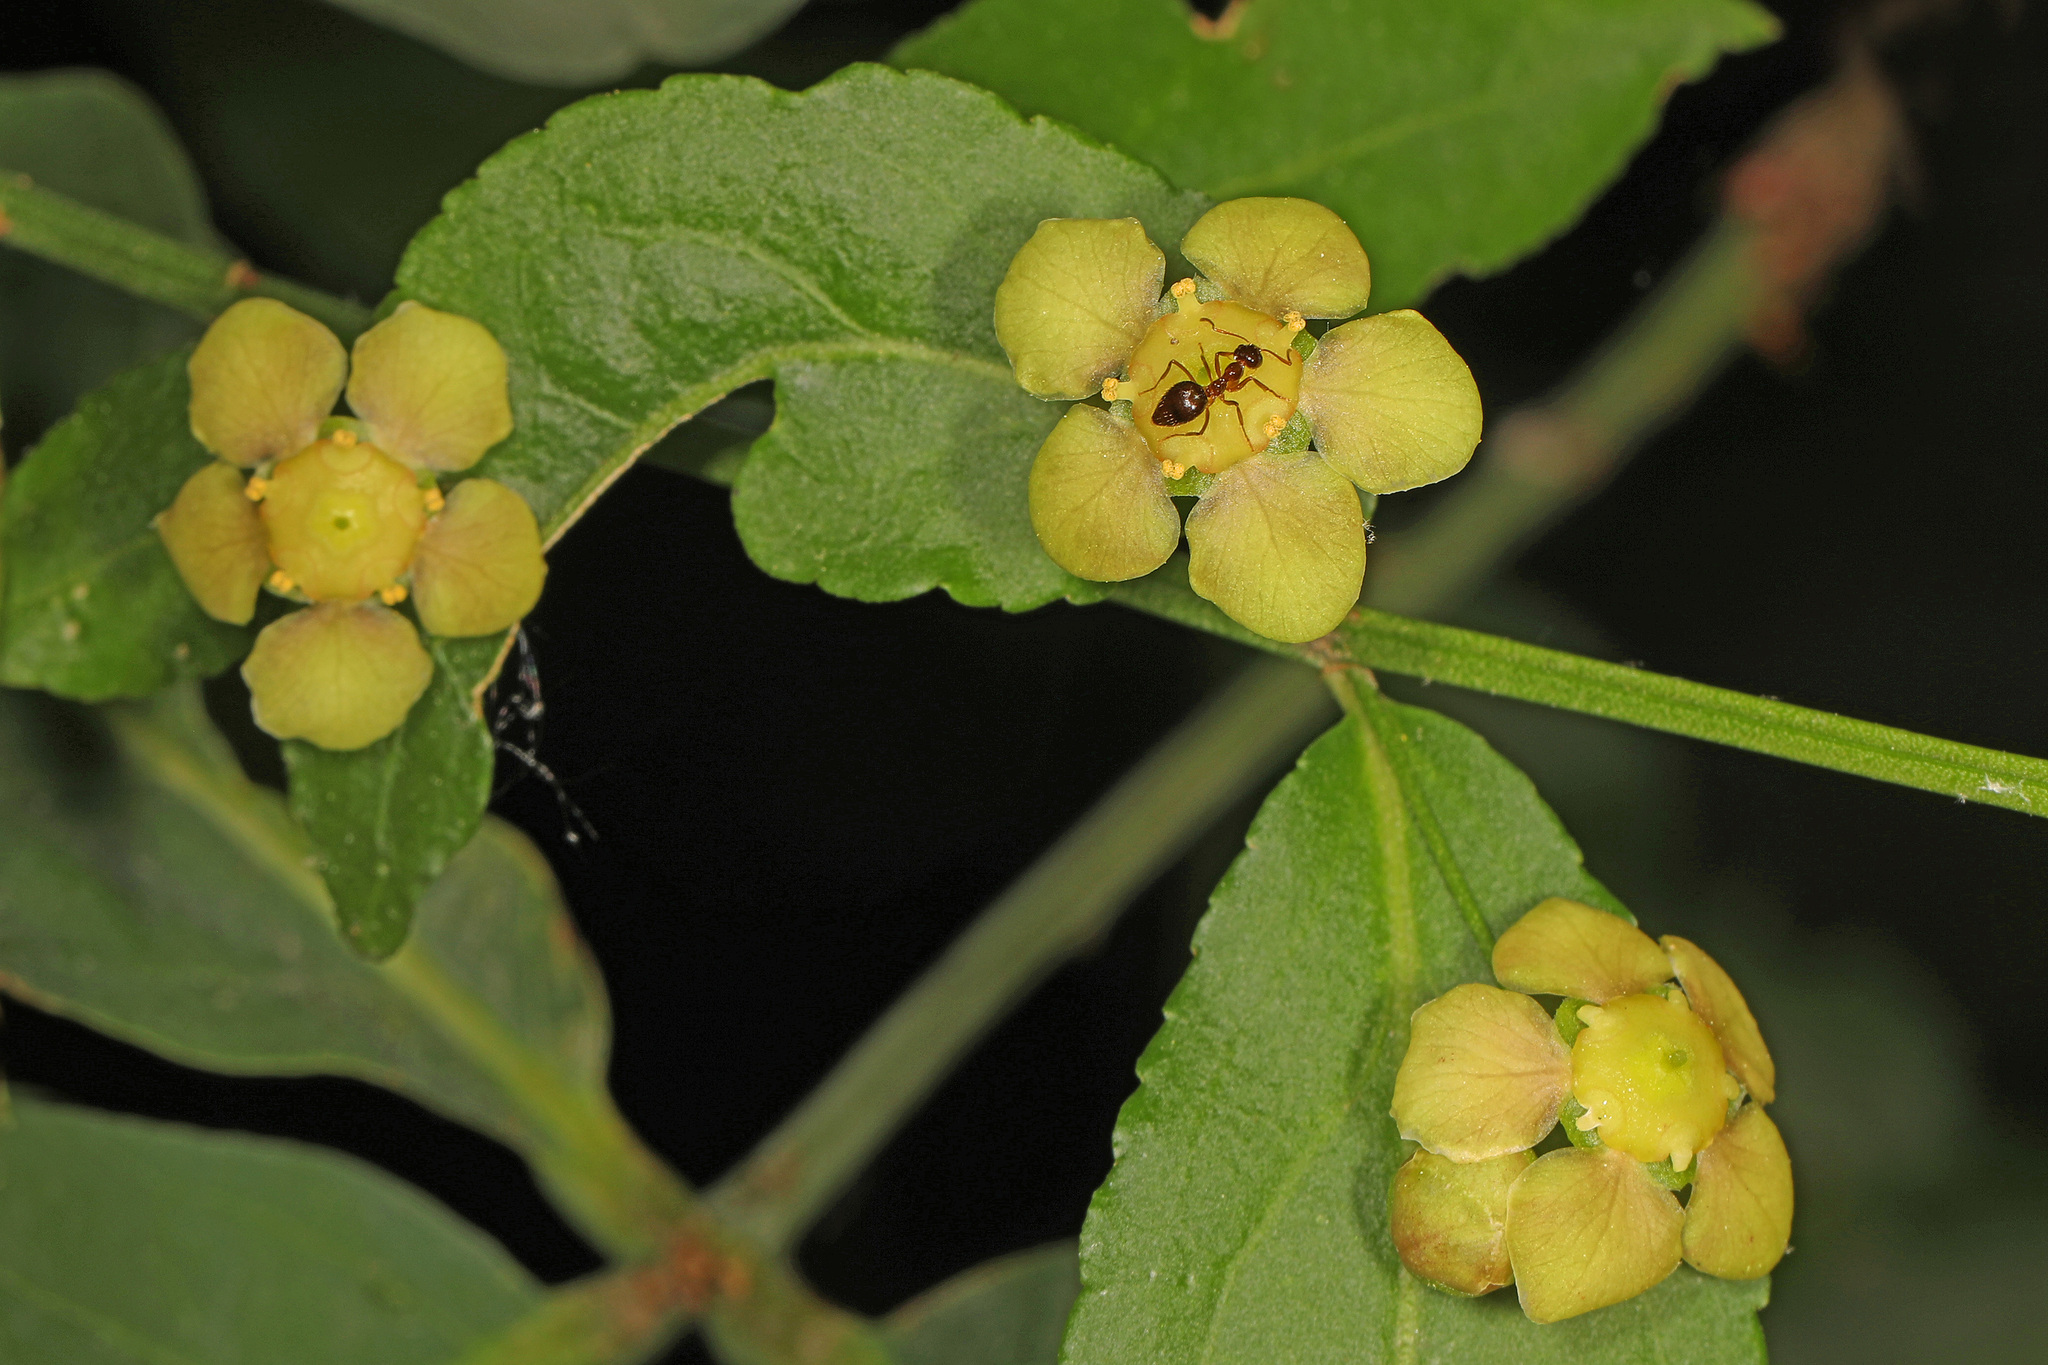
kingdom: Plantae
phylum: Tracheophyta
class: Magnoliopsida
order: Celastrales
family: Celastraceae
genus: Euonymus
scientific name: Euonymus americanus
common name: Bursting-heart
